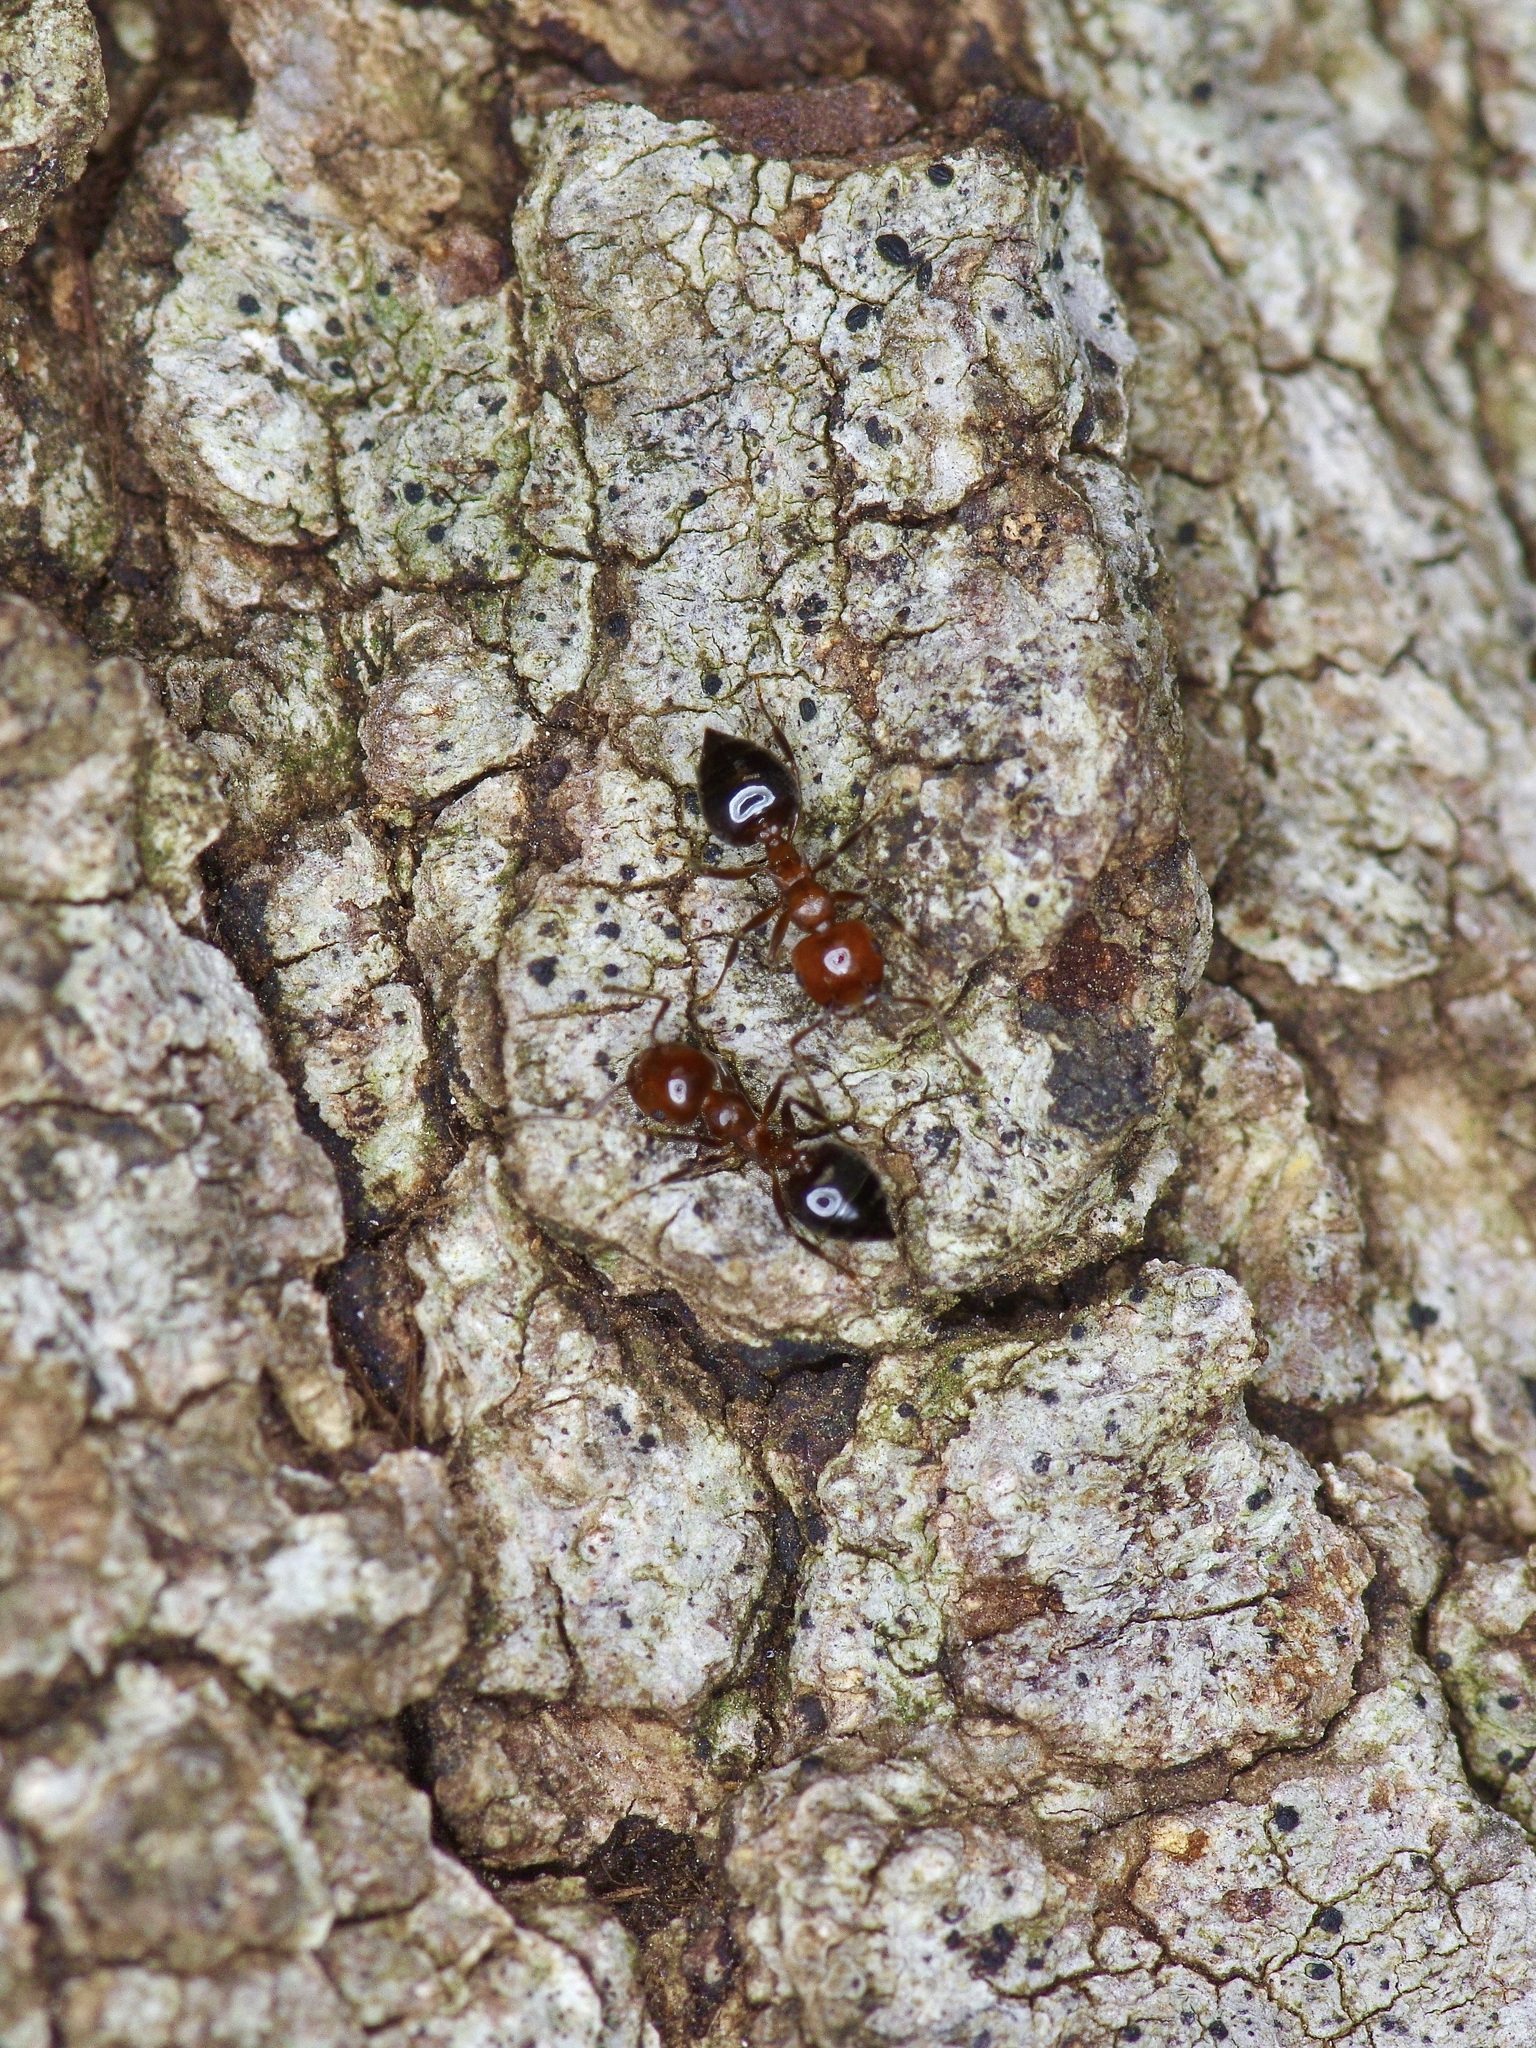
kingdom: Animalia
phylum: Arthropoda
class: Insecta
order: Hymenoptera
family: Formicidae
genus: Crematogaster
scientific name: Crematogaster laeviuscula
